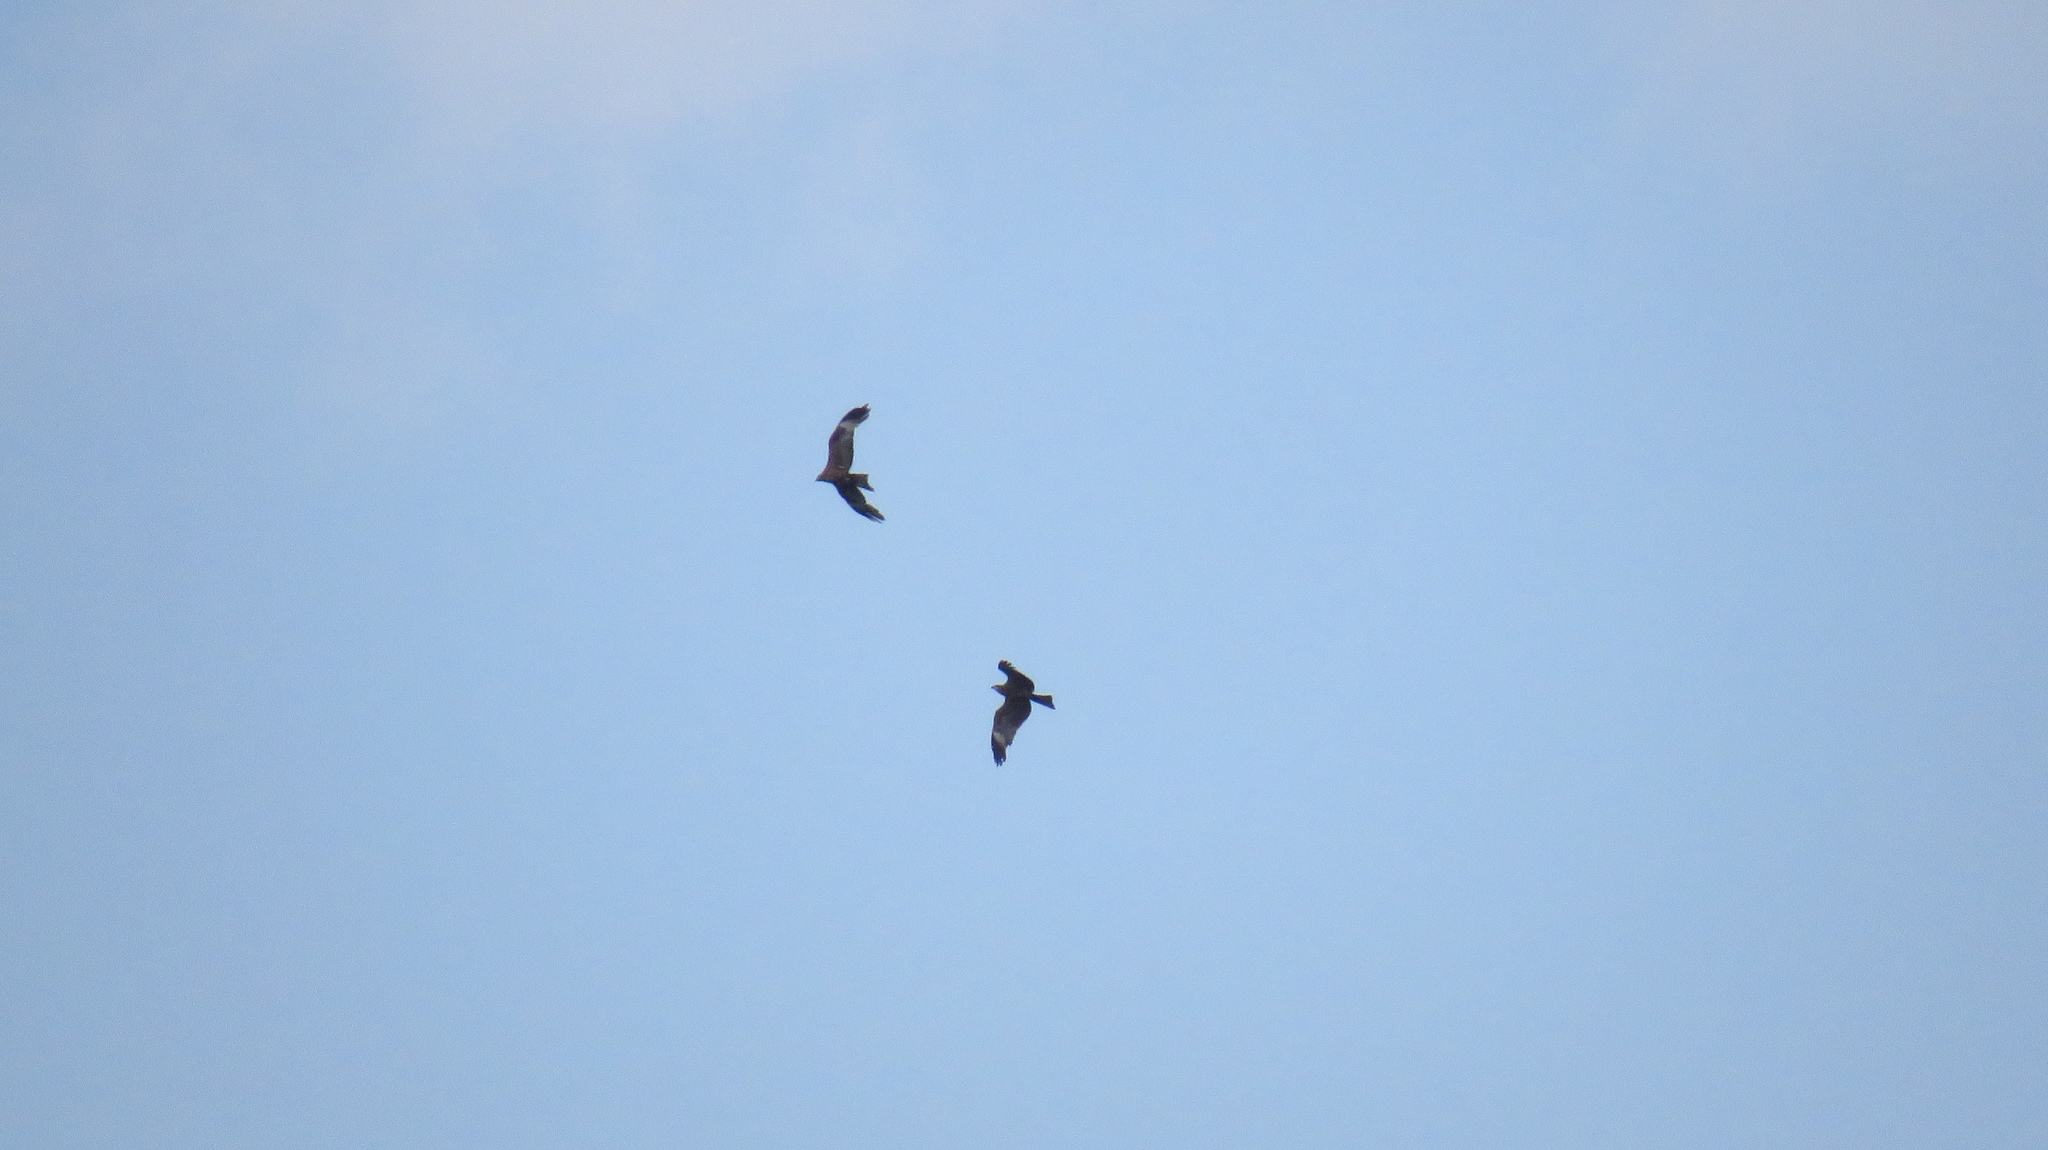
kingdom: Animalia
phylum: Chordata
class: Aves
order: Accipitriformes
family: Accipitridae
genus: Milvus
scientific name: Milvus migrans
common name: Black kite
